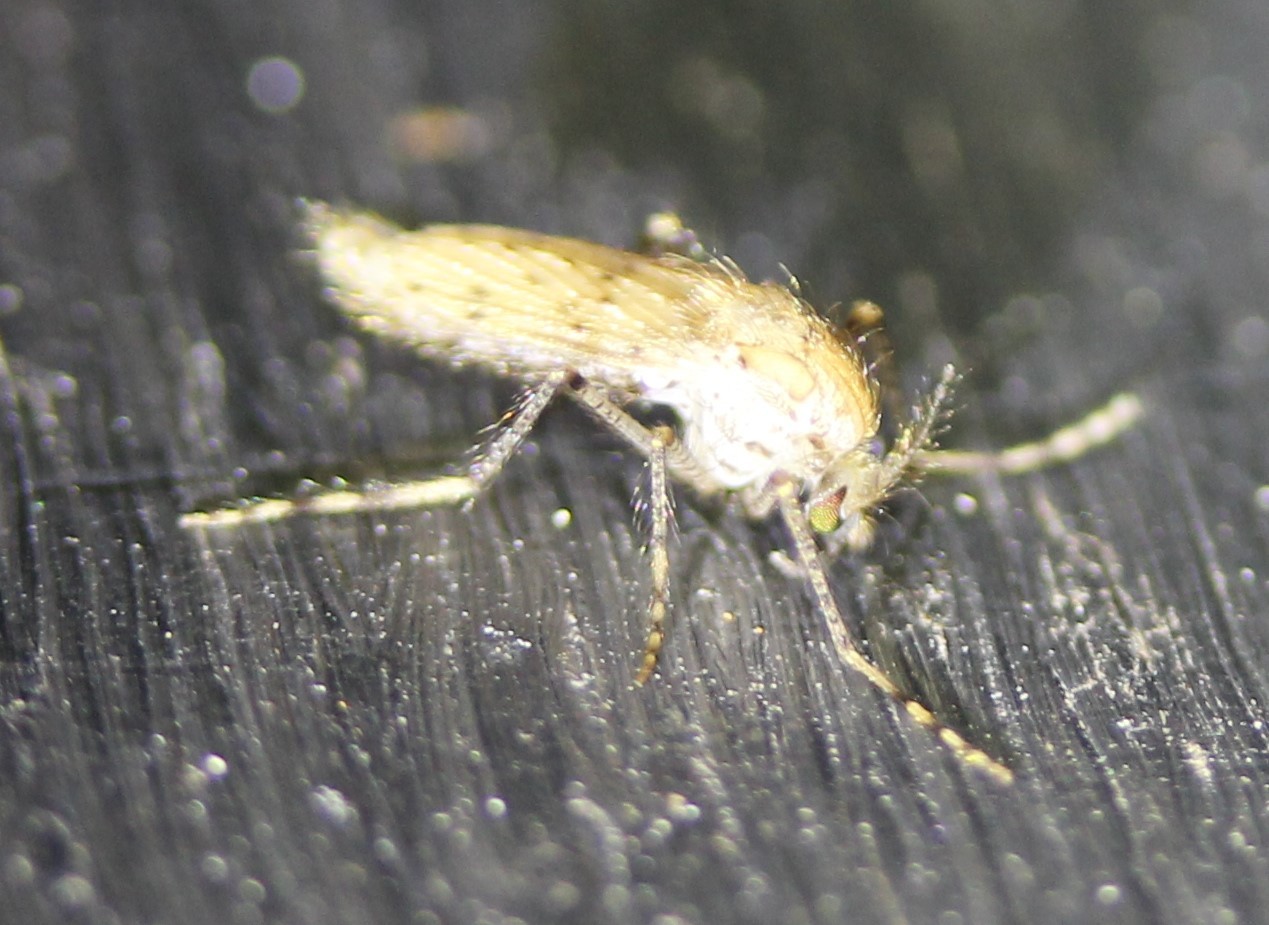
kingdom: Animalia
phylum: Arthropoda
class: Insecta
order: Diptera
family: Chaoboridae
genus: Chaoborus
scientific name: Chaoborus punctipennis
